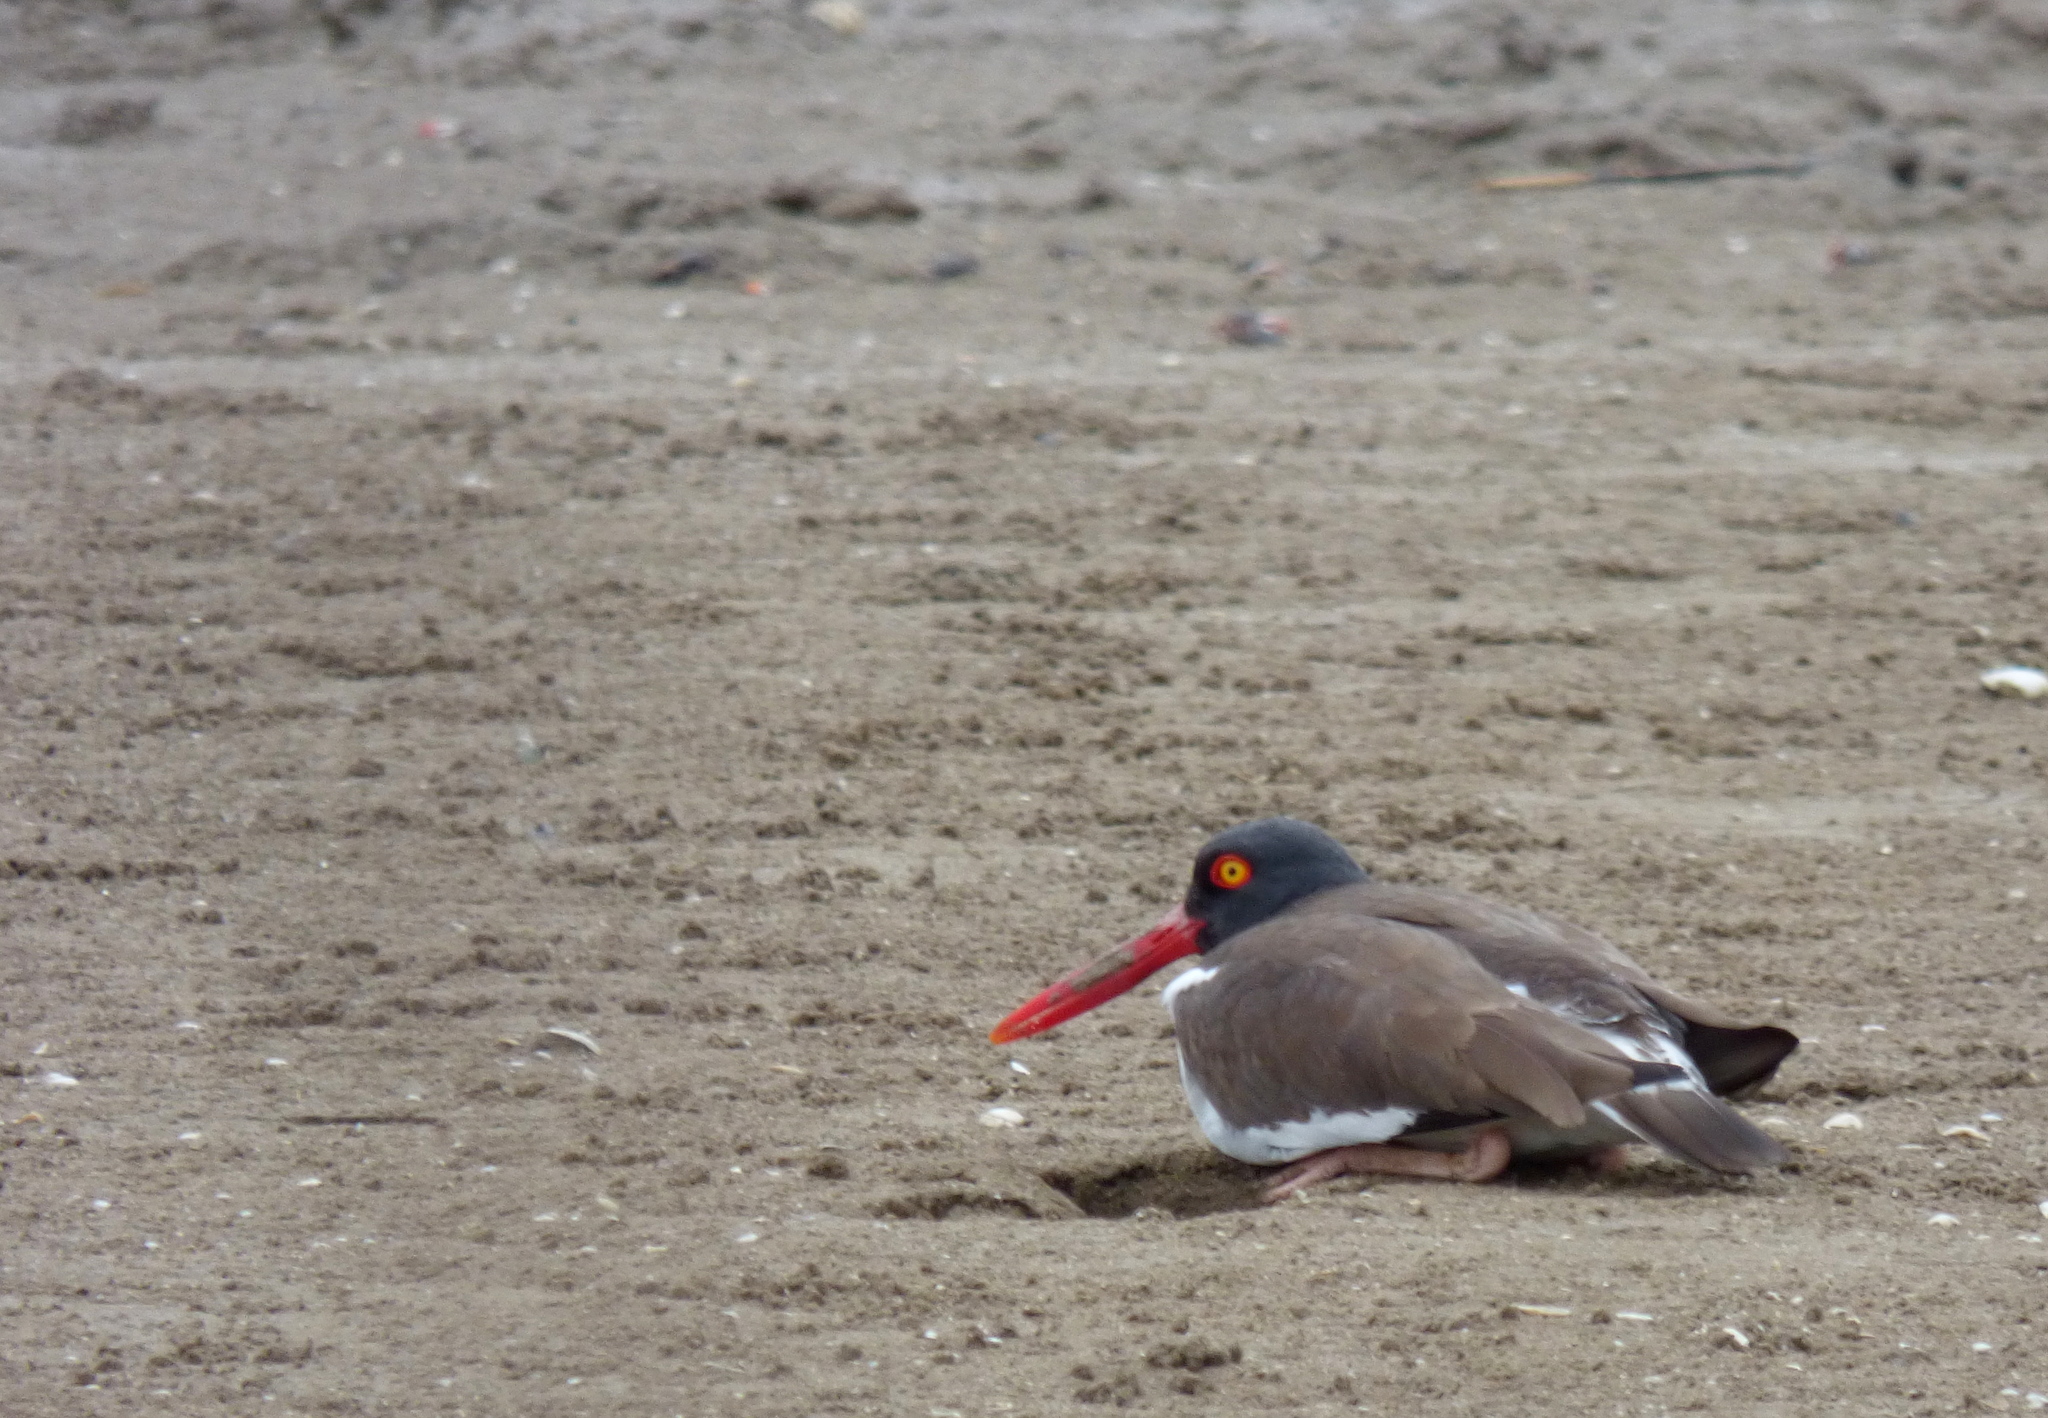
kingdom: Animalia
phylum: Chordata
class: Aves
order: Charadriiformes
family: Haematopodidae
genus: Haematopus
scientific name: Haematopus palliatus
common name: American oystercatcher
